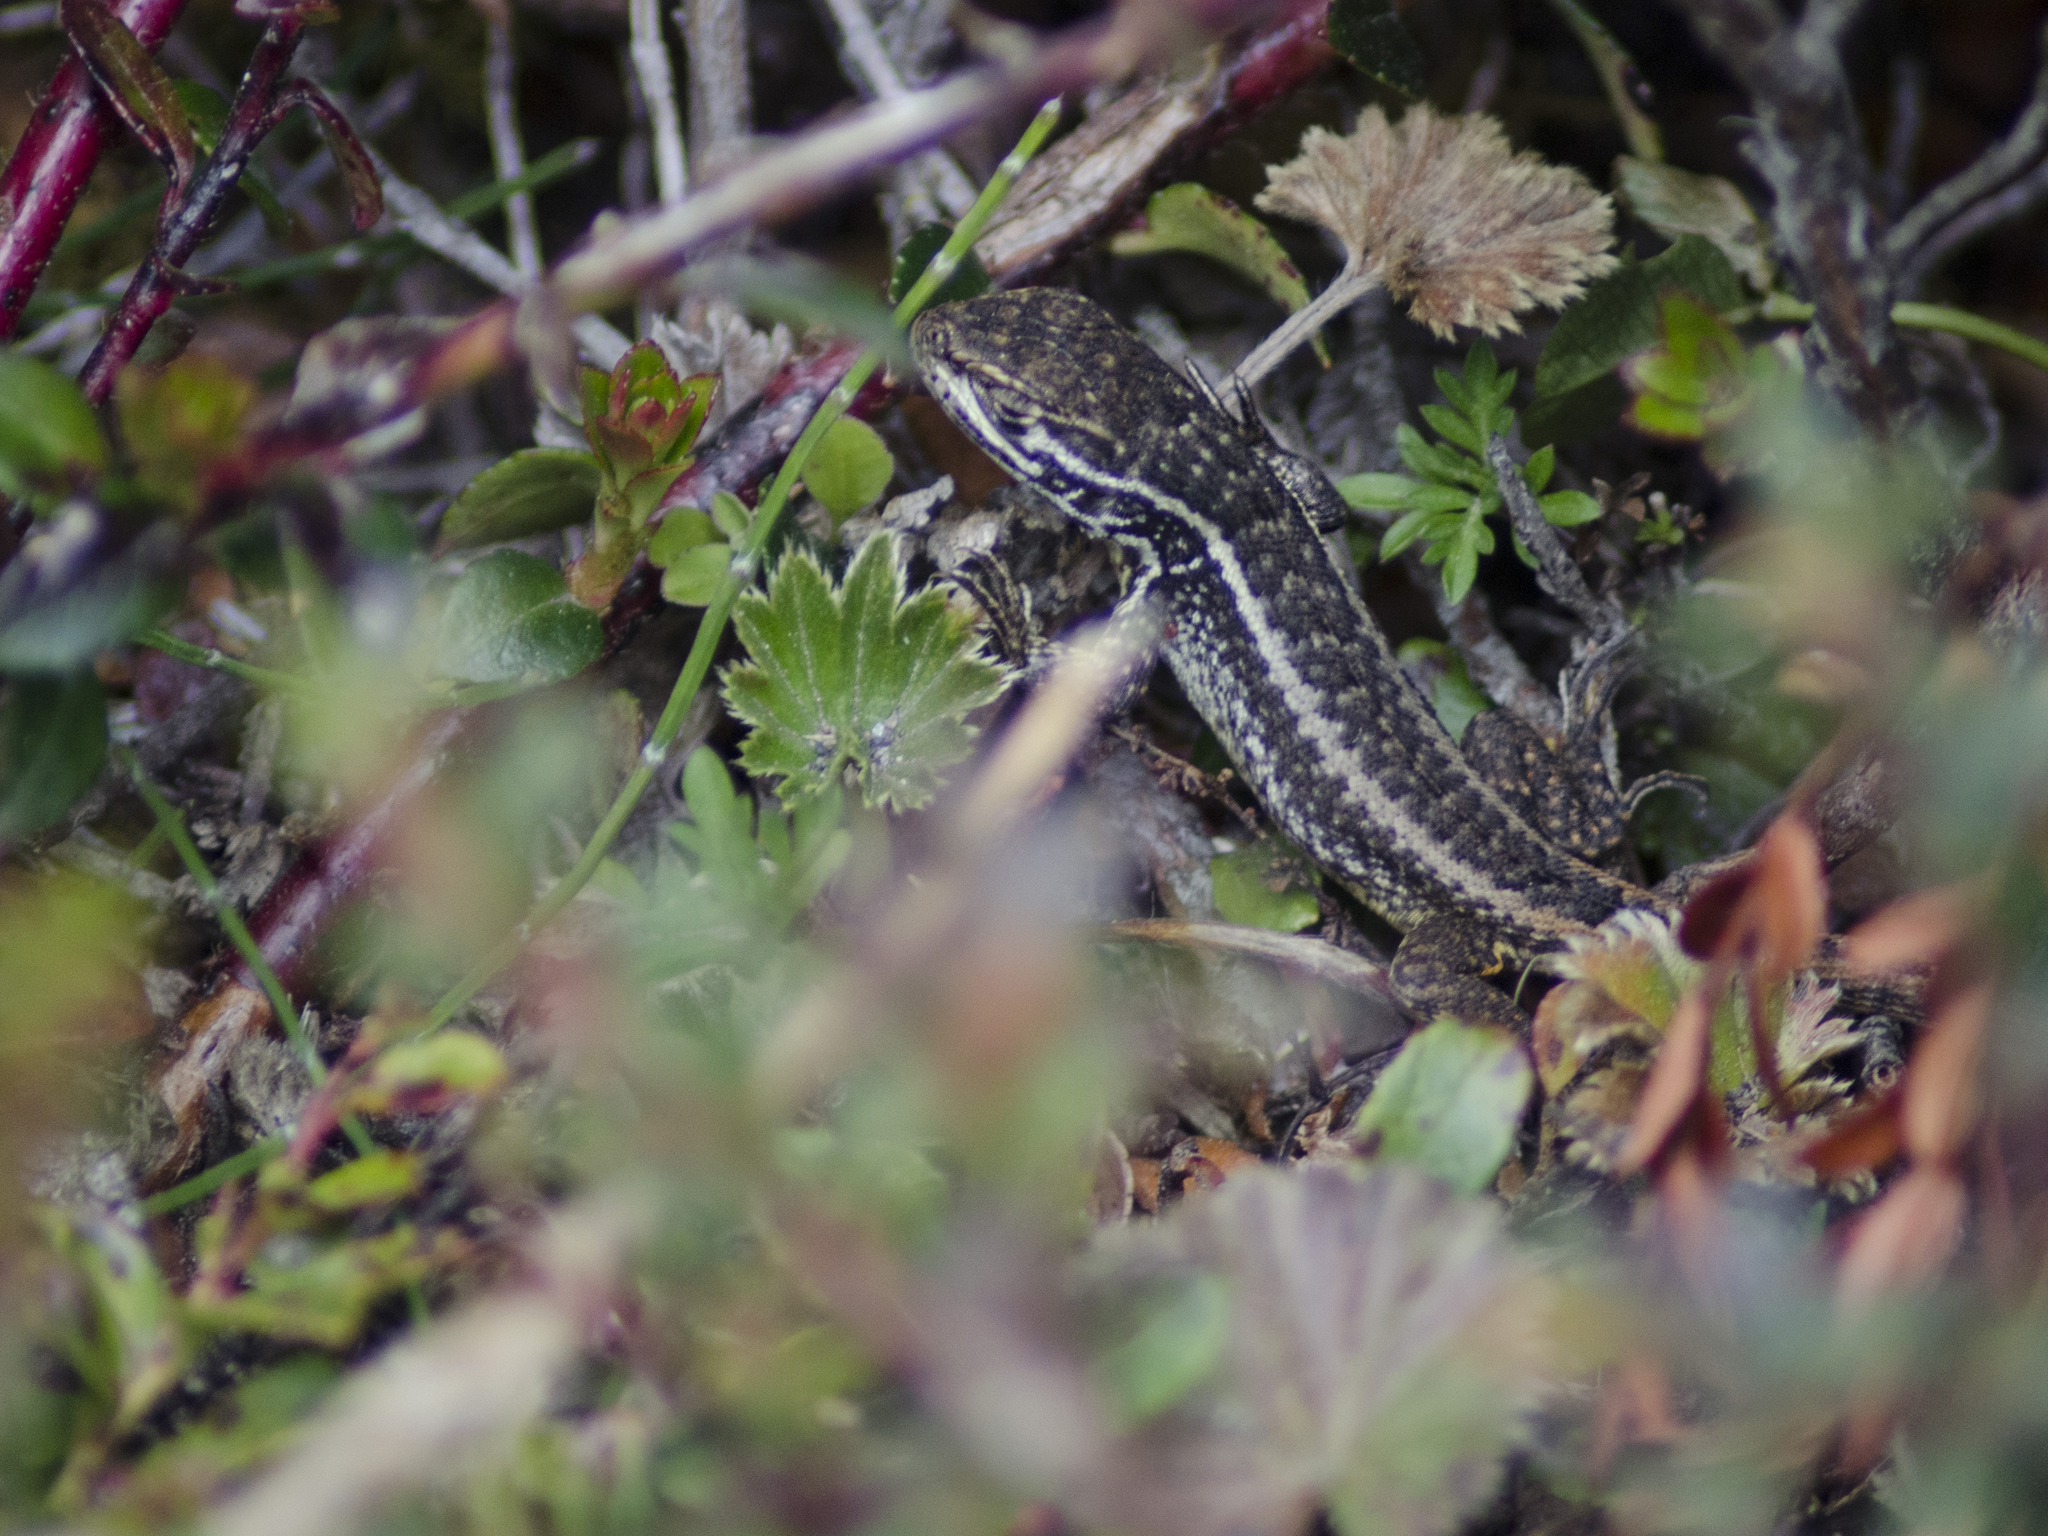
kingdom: Animalia
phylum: Chordata
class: Squamata
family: Tropiduridae
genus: Stenocercus
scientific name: Stenocercus guentheri
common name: Günther's whorltail iguana
